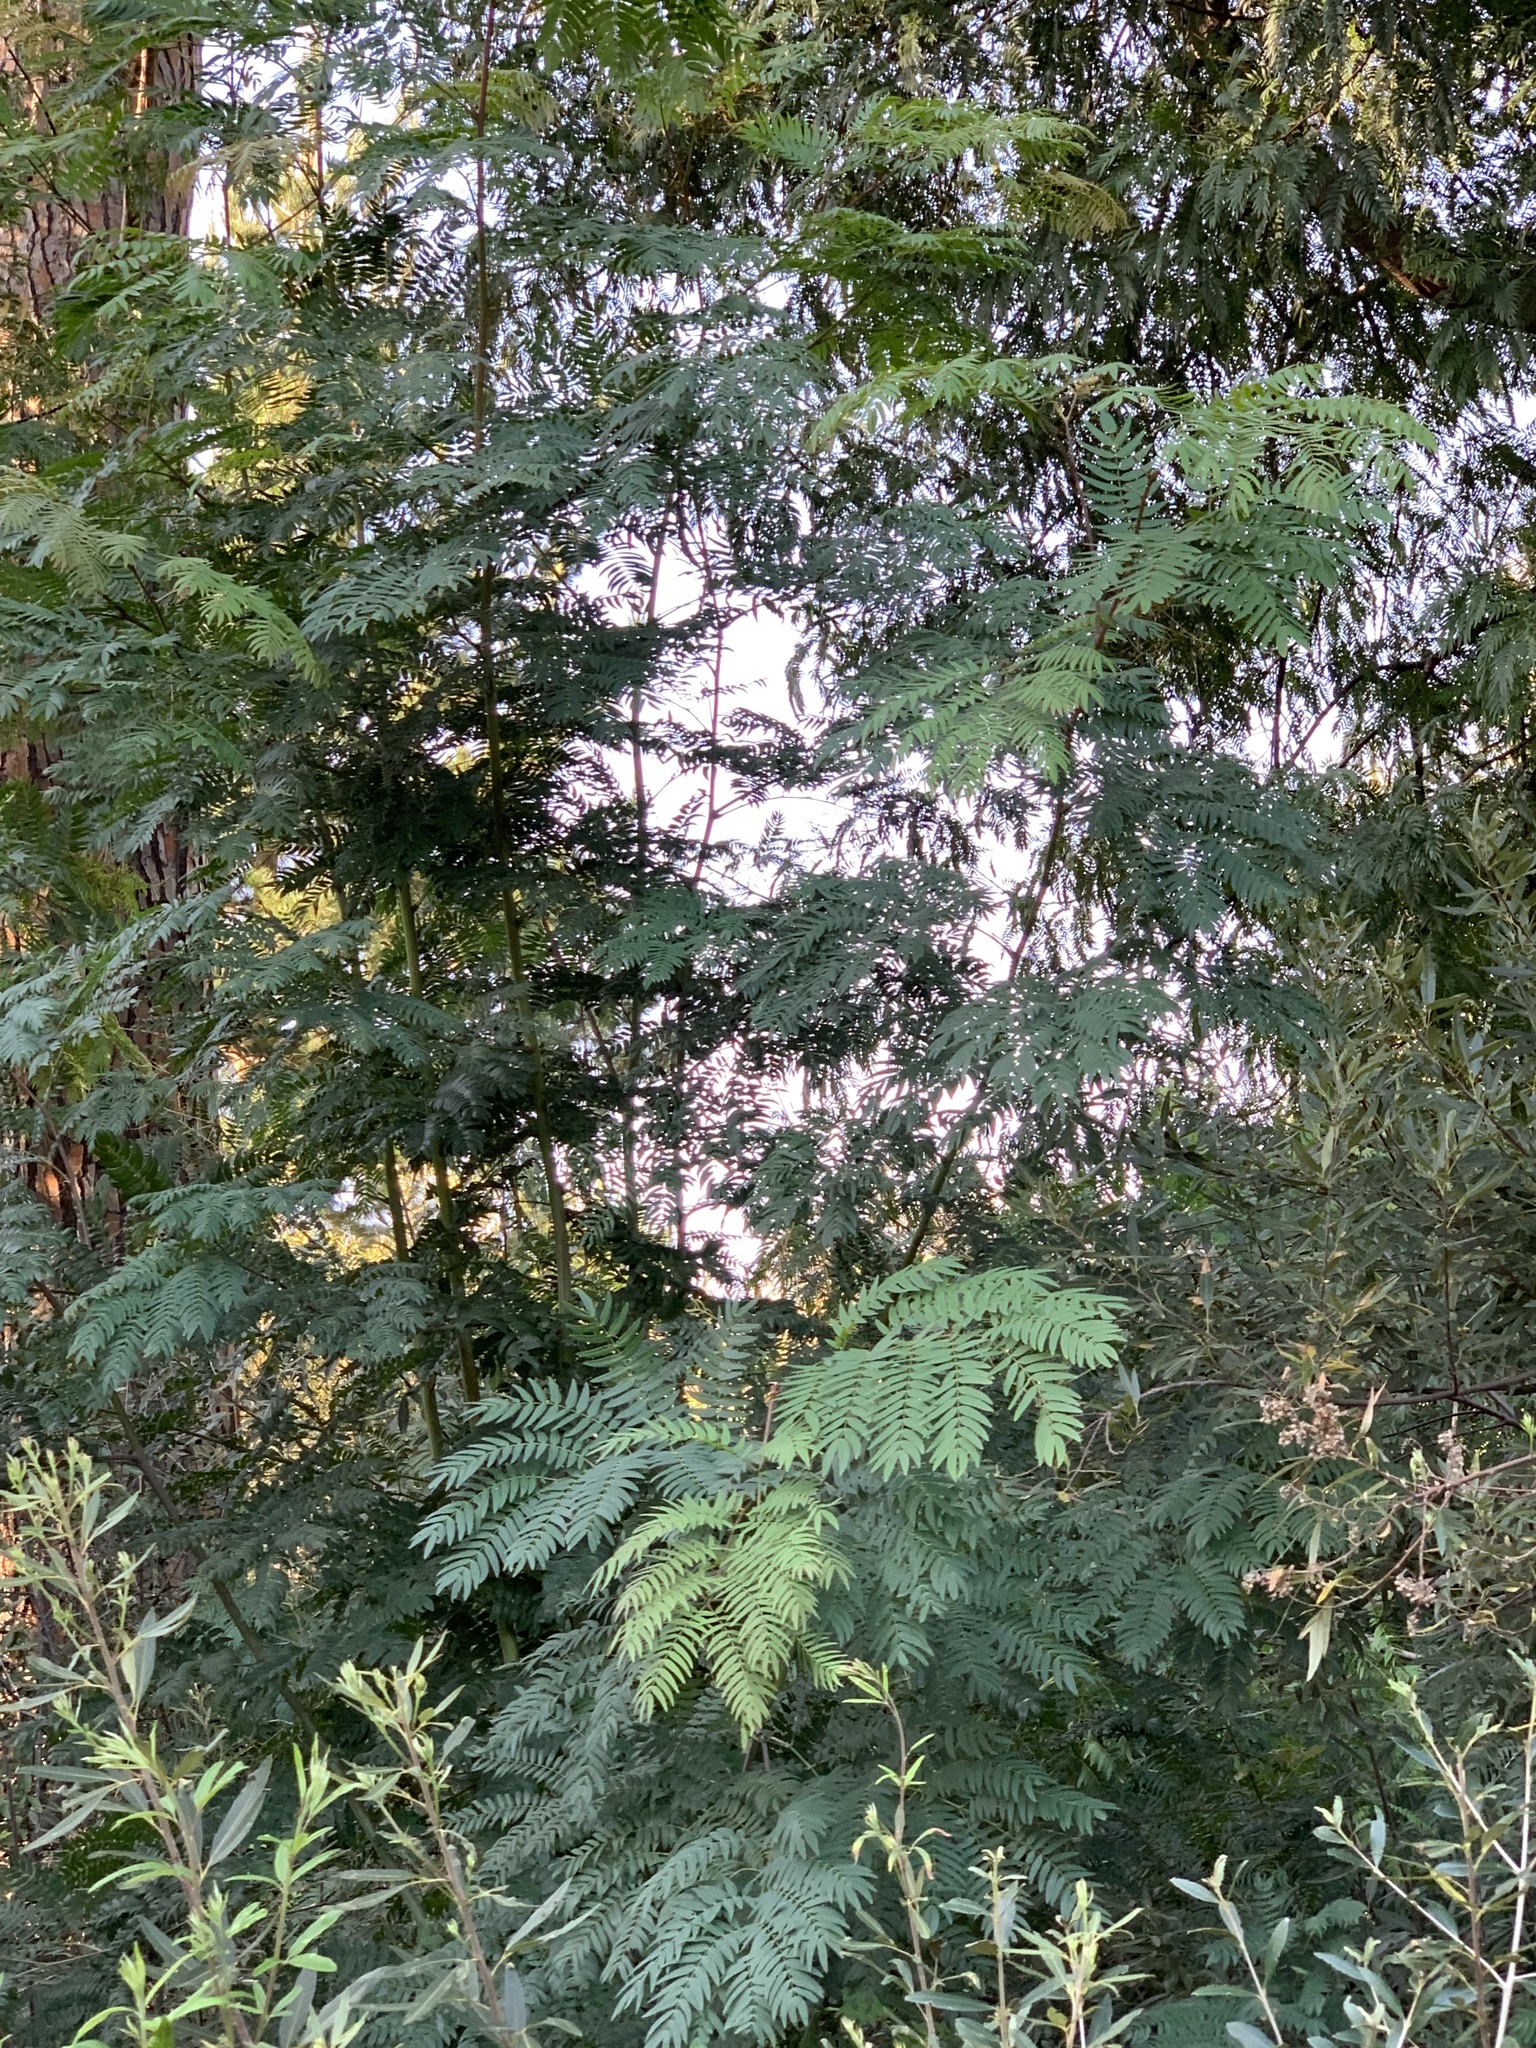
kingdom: Plantae
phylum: Tracheophyta
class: Magnoliopsida
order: Fabales
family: Fabaceae
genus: Acacia
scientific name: Acacia elata
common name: Cedar wattle
